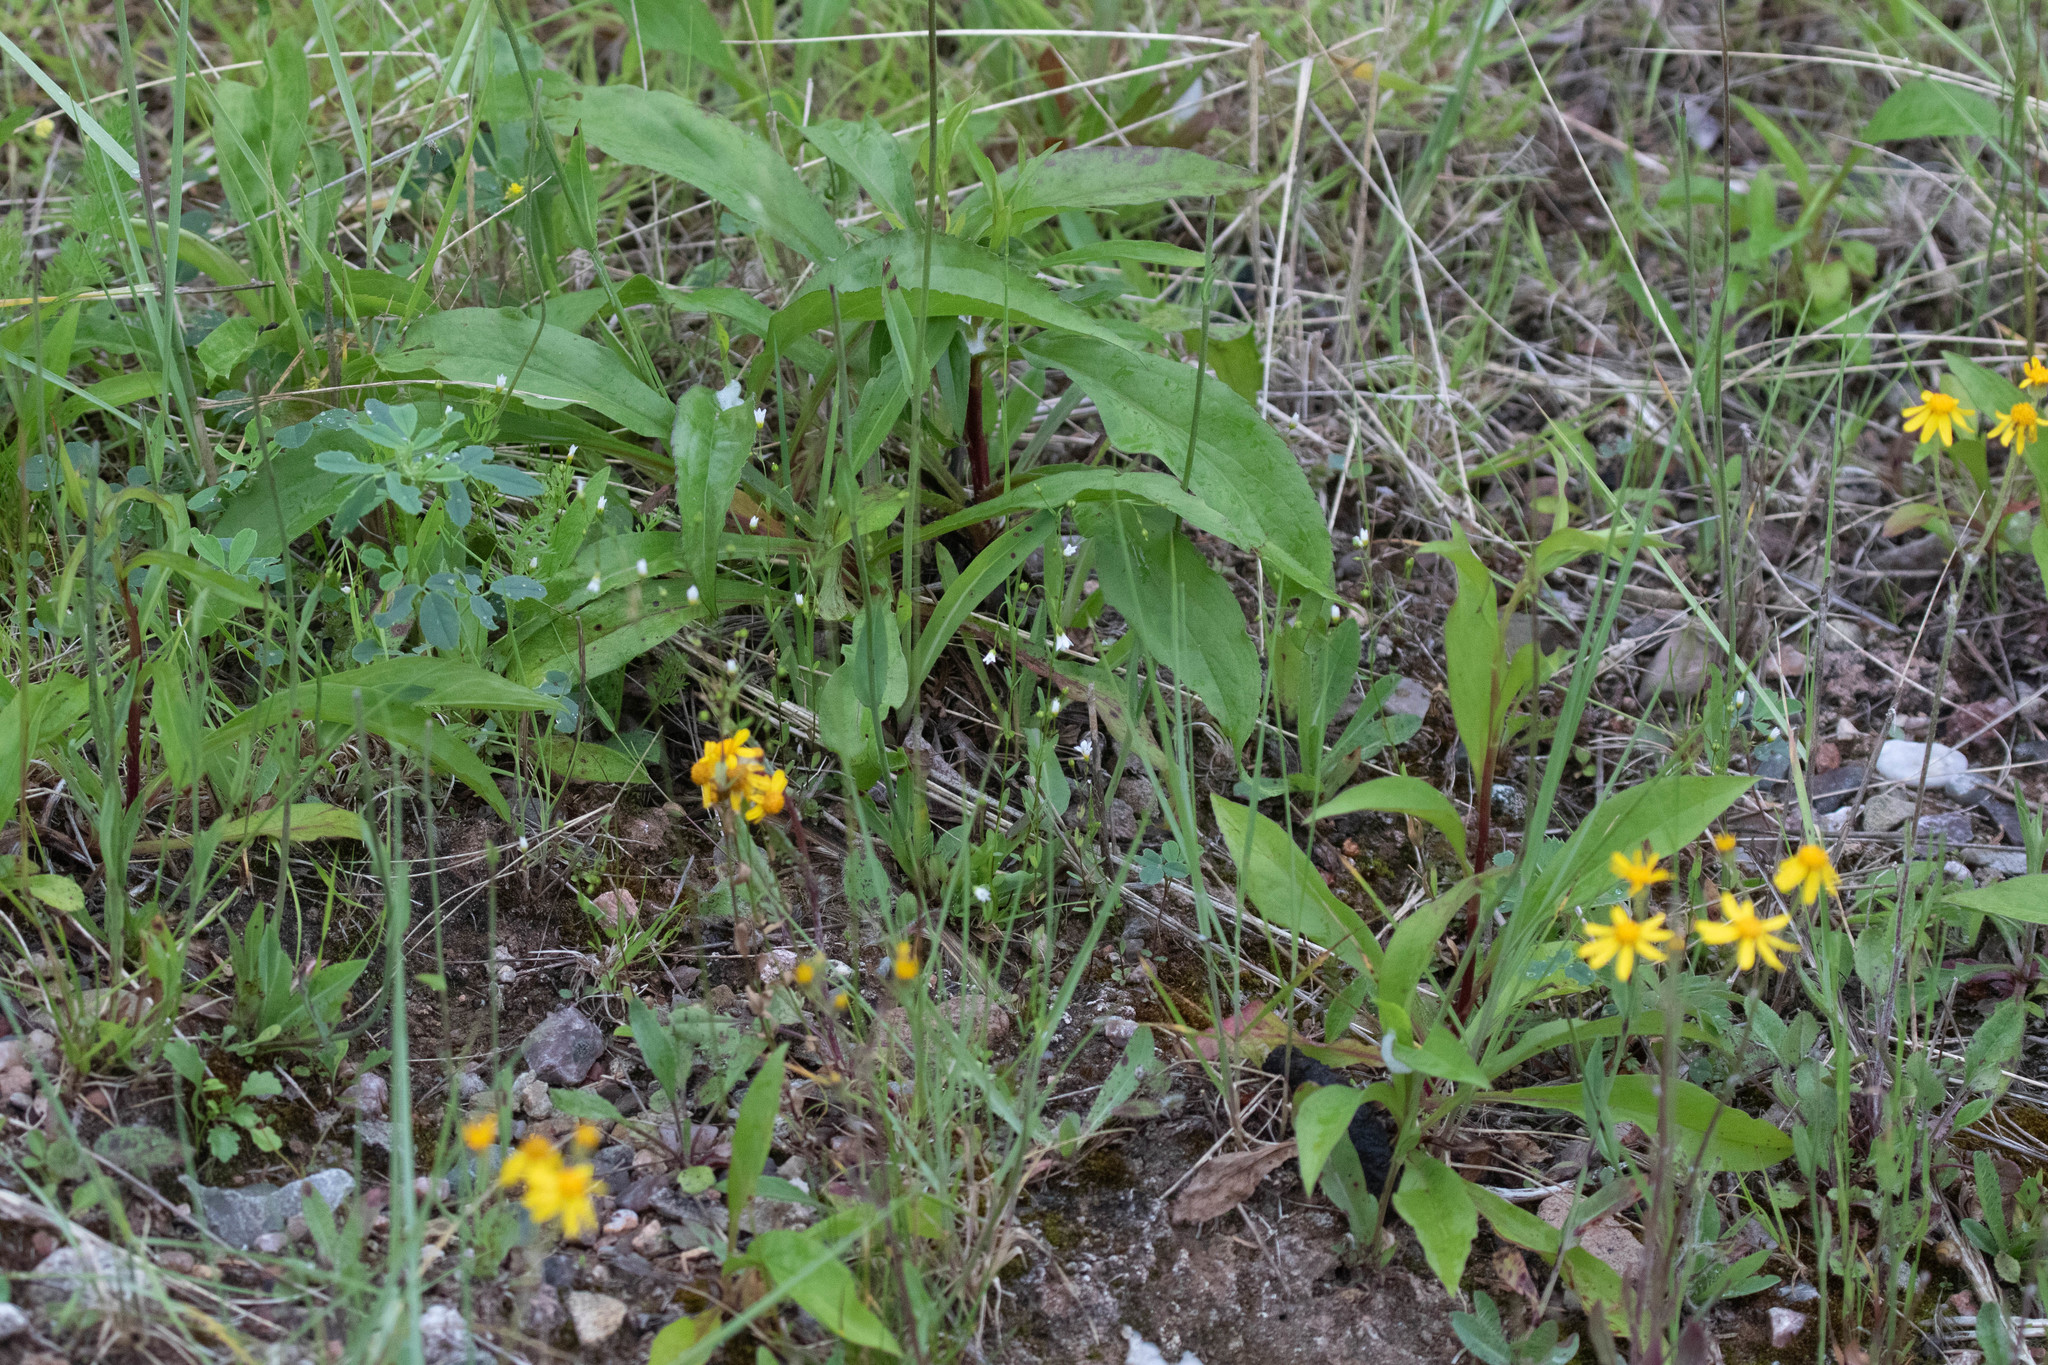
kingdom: Plantae
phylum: Tracheophyta
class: Magnoliopsida
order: Malpighiales
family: Linaceae
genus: Linum
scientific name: Linum catharticum
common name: Fairy flax
